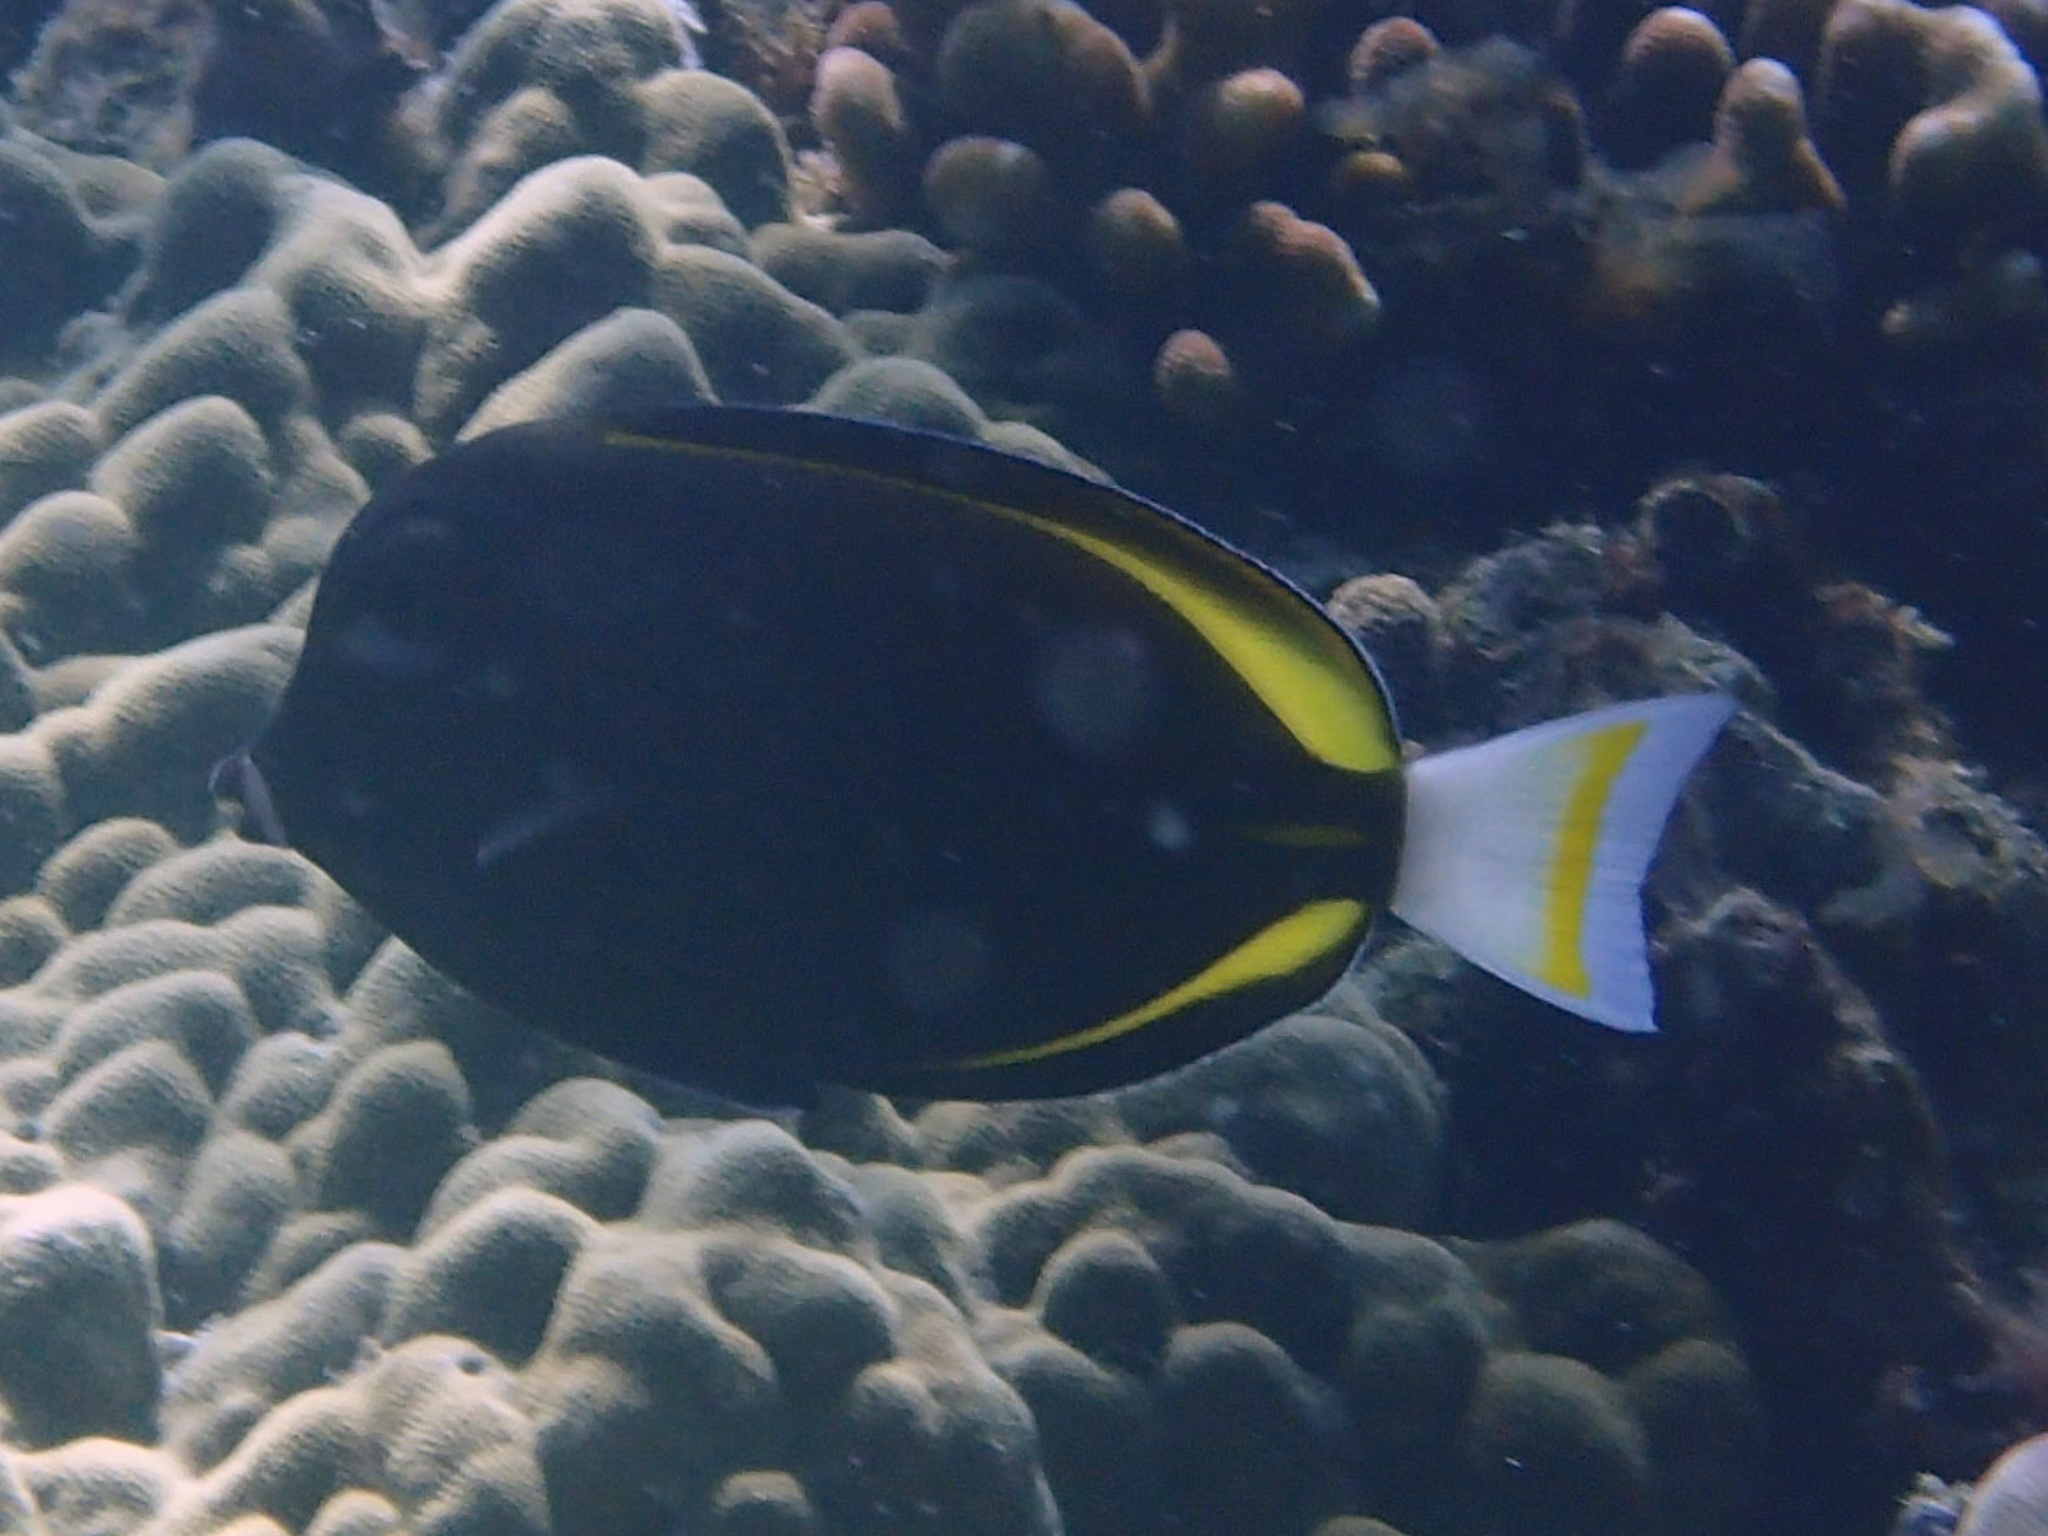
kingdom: Animalia
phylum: Chordata
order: Perciformes
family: Acanthuridae
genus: Acanthurus
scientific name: Acanthurus nigricans
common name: Whitecheek surgeonfish
